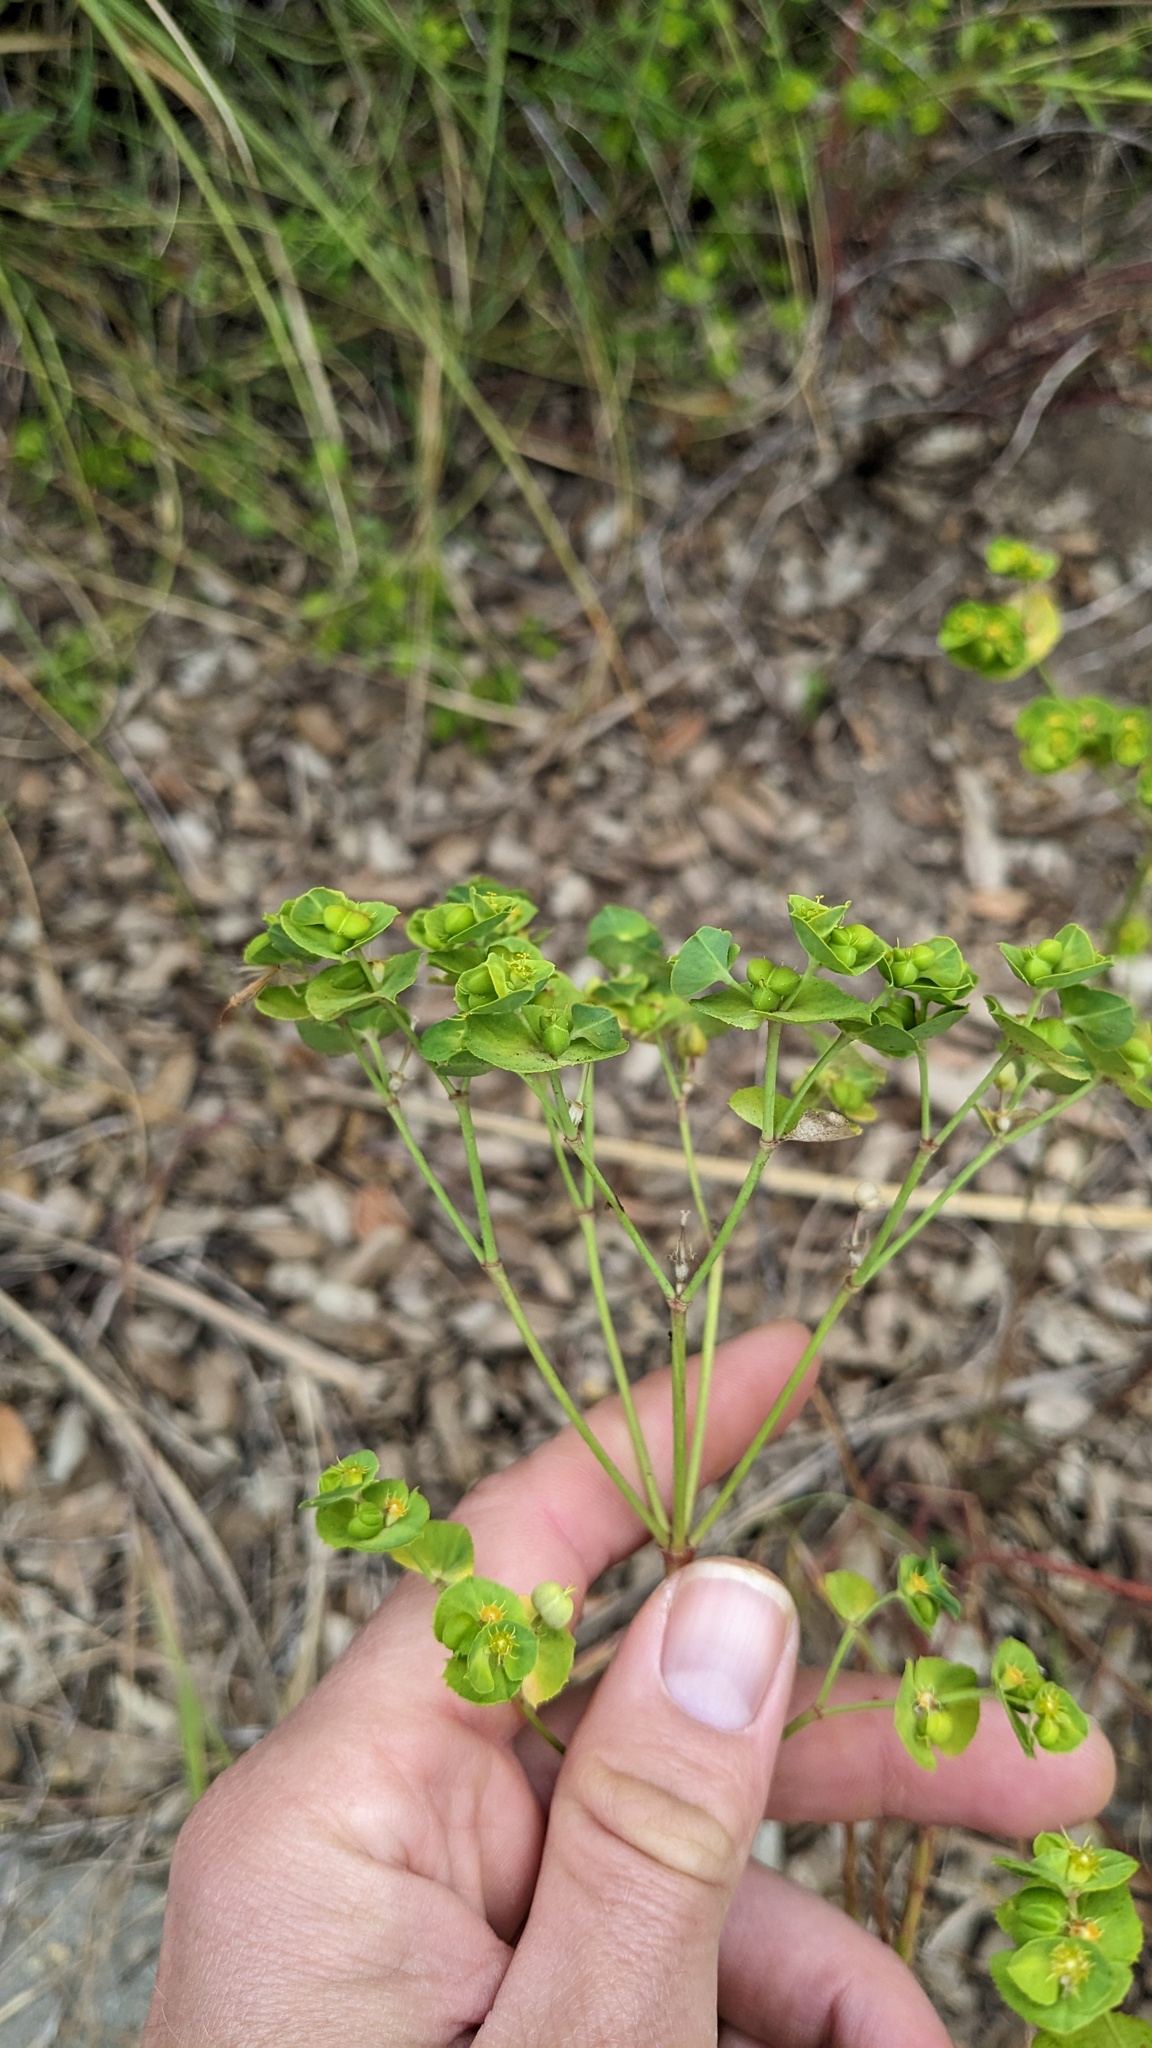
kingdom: Plantae
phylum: Tracheophyta
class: Magnoliopsida
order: Malpighiales
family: Euphorbiaceae
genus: Euphorbia
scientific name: Euphorbia terracina
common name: Geraldton carnation weed
